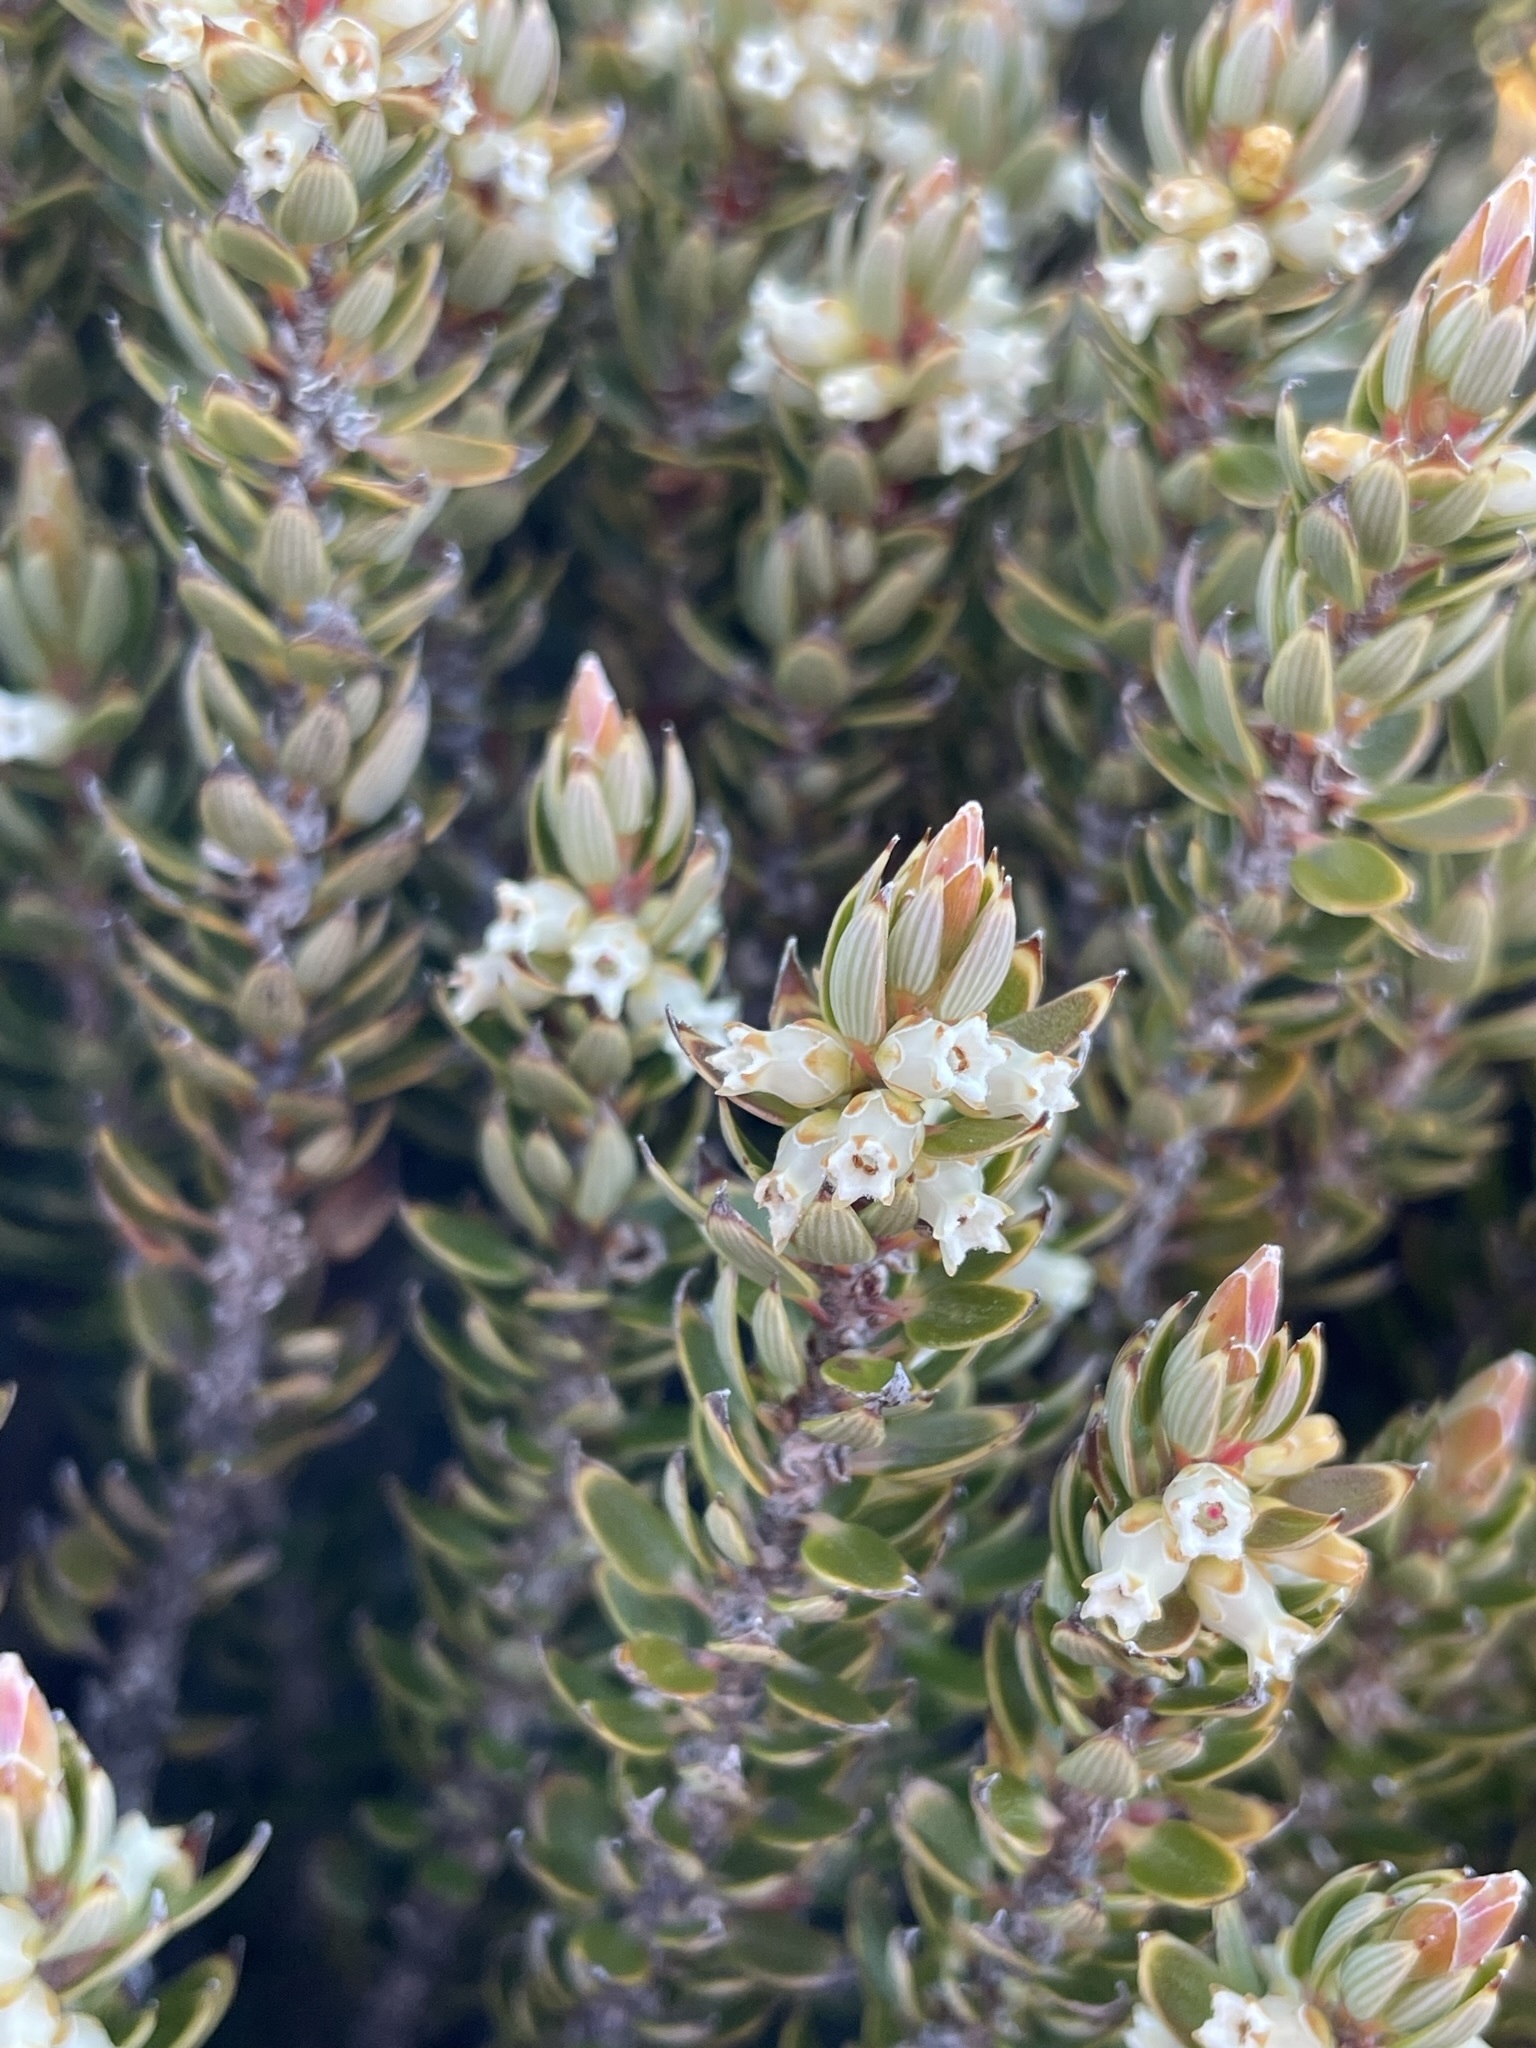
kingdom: Plantae
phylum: Tracheophyta
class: Magnoliopsida
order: Ericales
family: Ericaceae
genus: Planocarpa
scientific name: Planocarpa petiolaris
